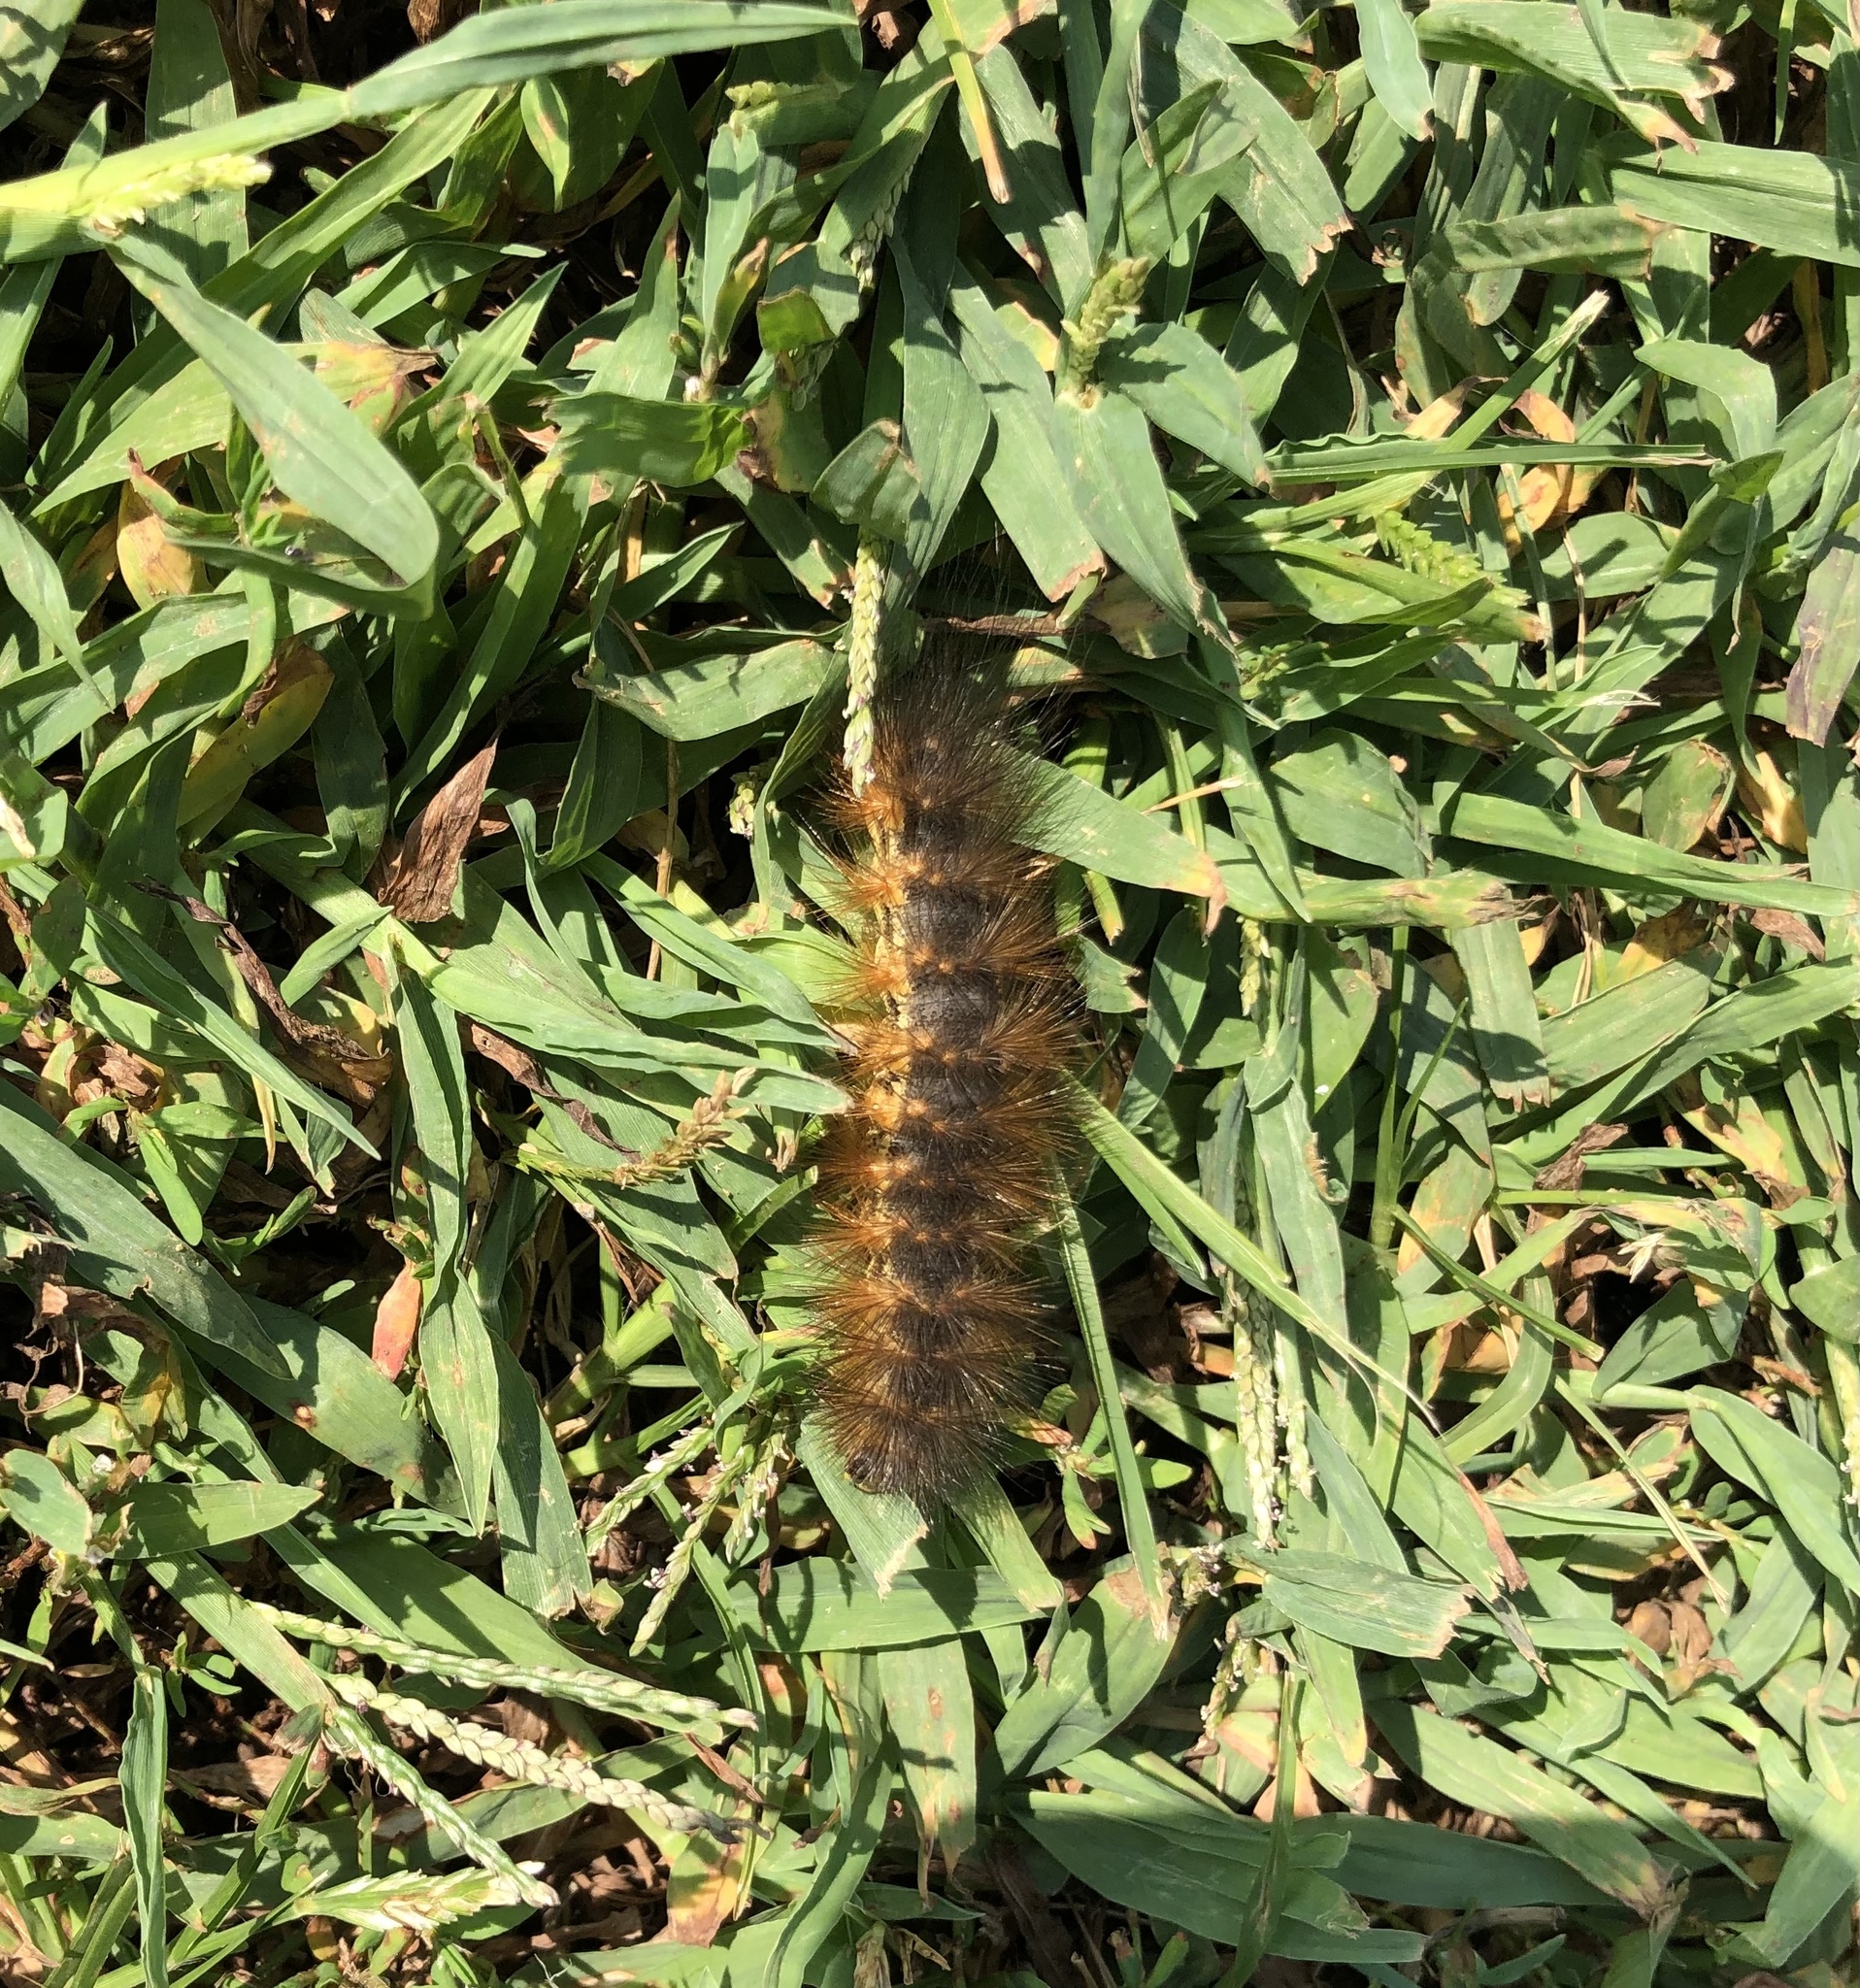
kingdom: Animalia
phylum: Arthropoda
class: Insecta
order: Lepidoptera
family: Erebidae
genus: Estigmene
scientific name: Estigmene acrea
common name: Salt marsh moth
